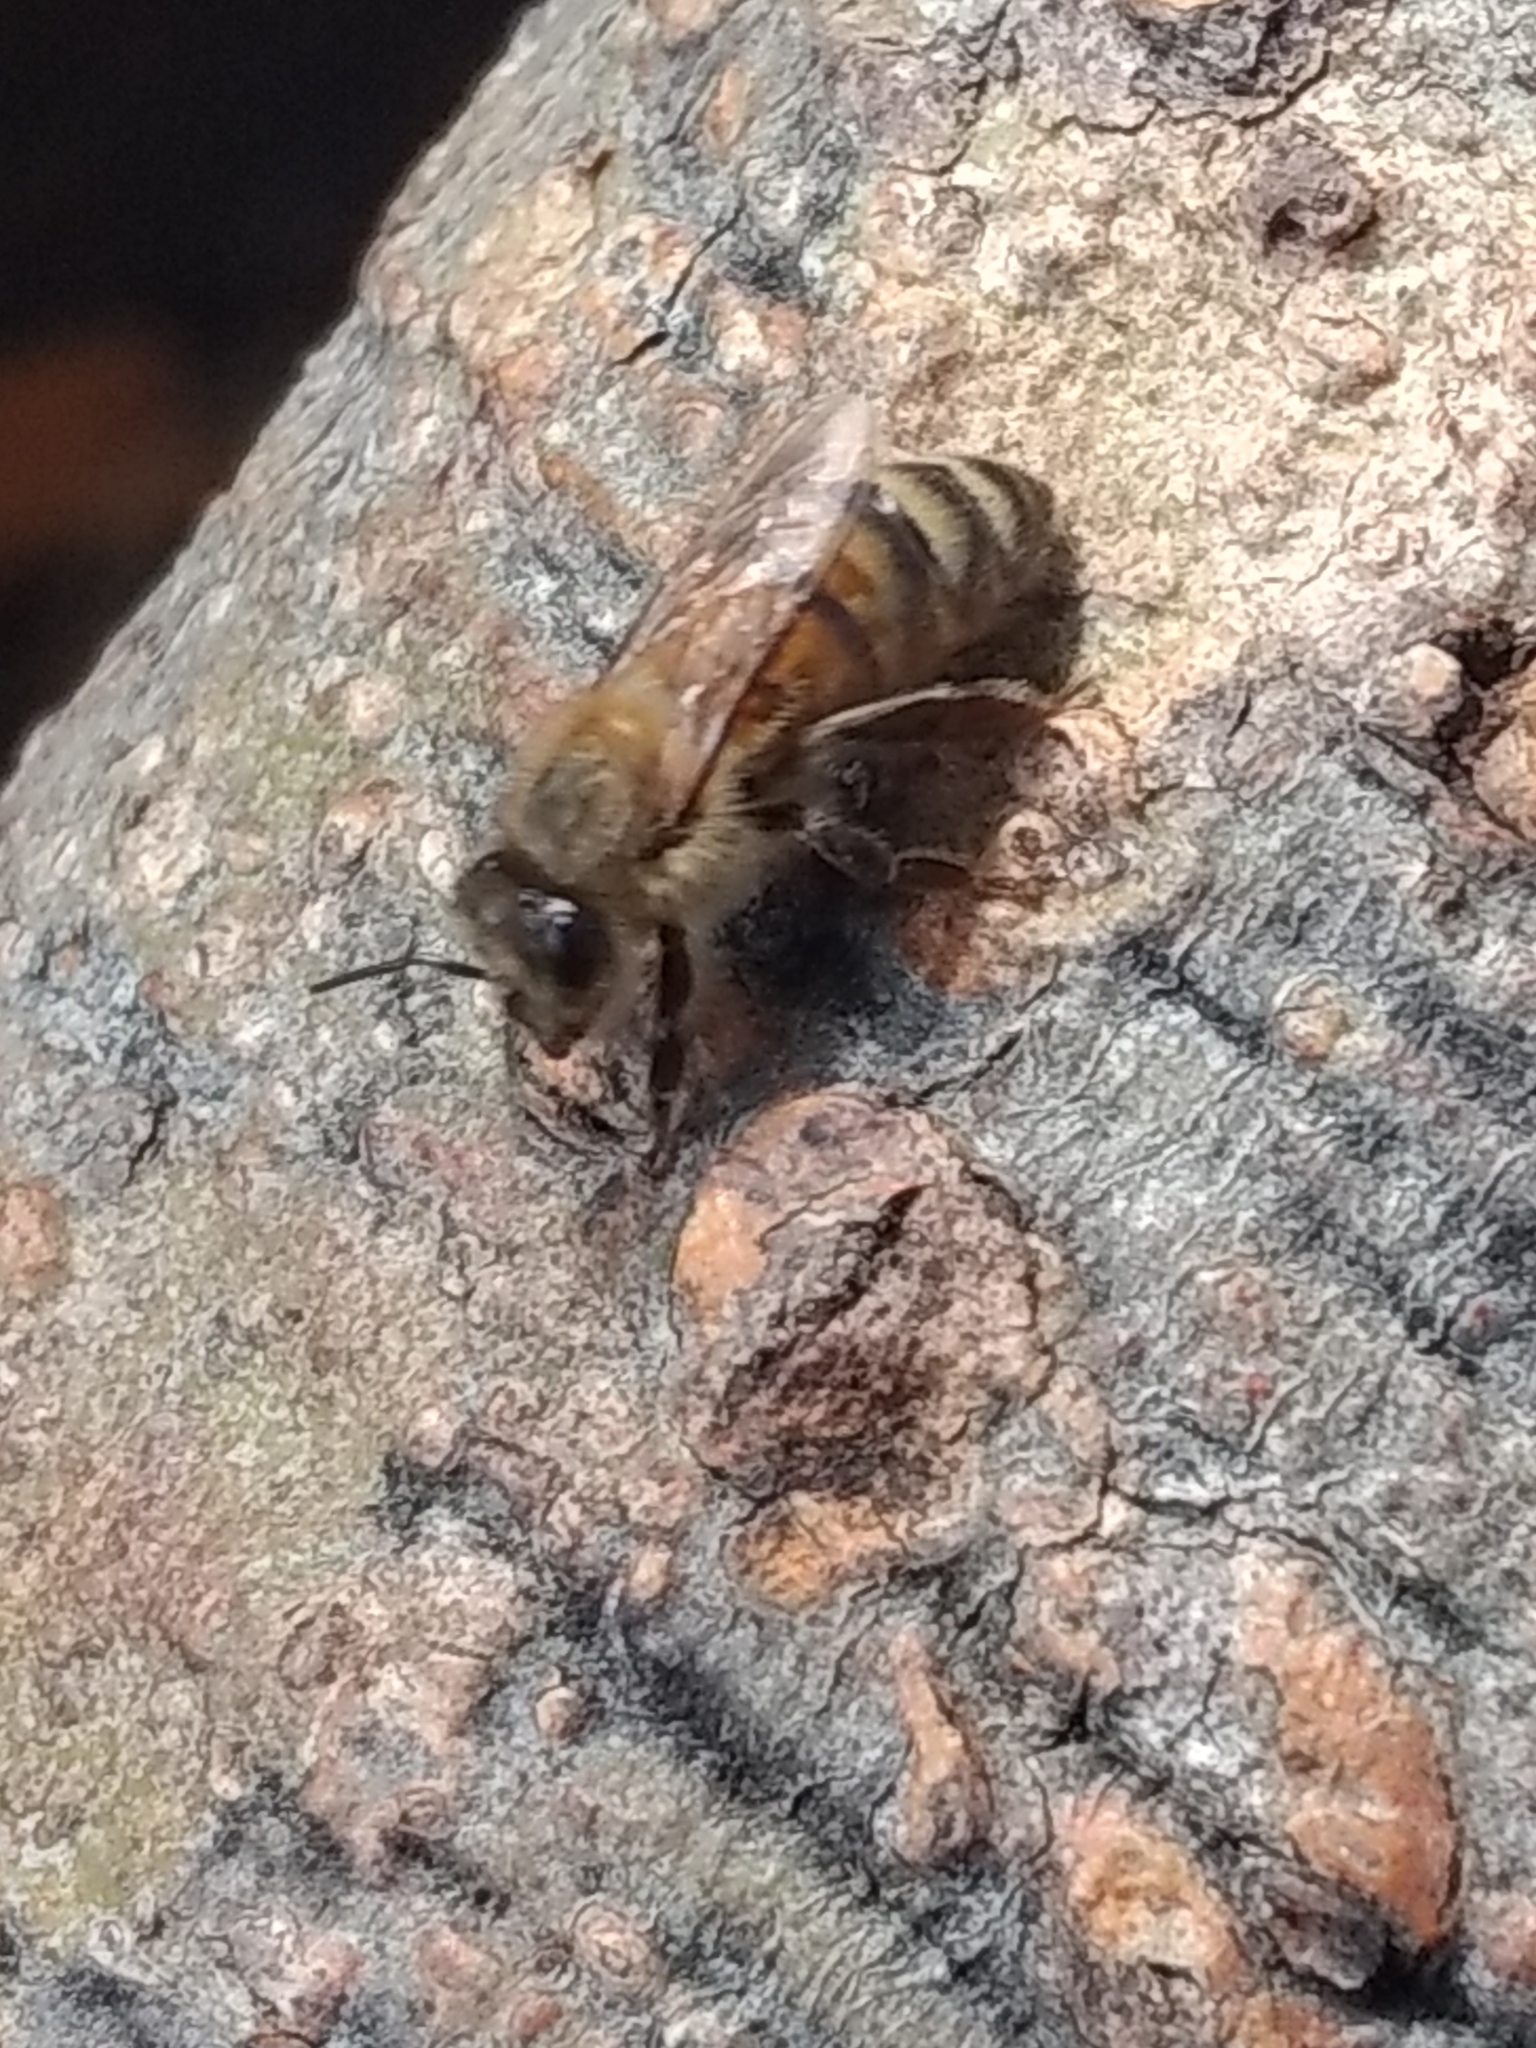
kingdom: Animalia
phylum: Arthropoda
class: Insecta
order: Hymenoptera
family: Apidae
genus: Apis
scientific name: Apis mellifera
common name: Honey bee
